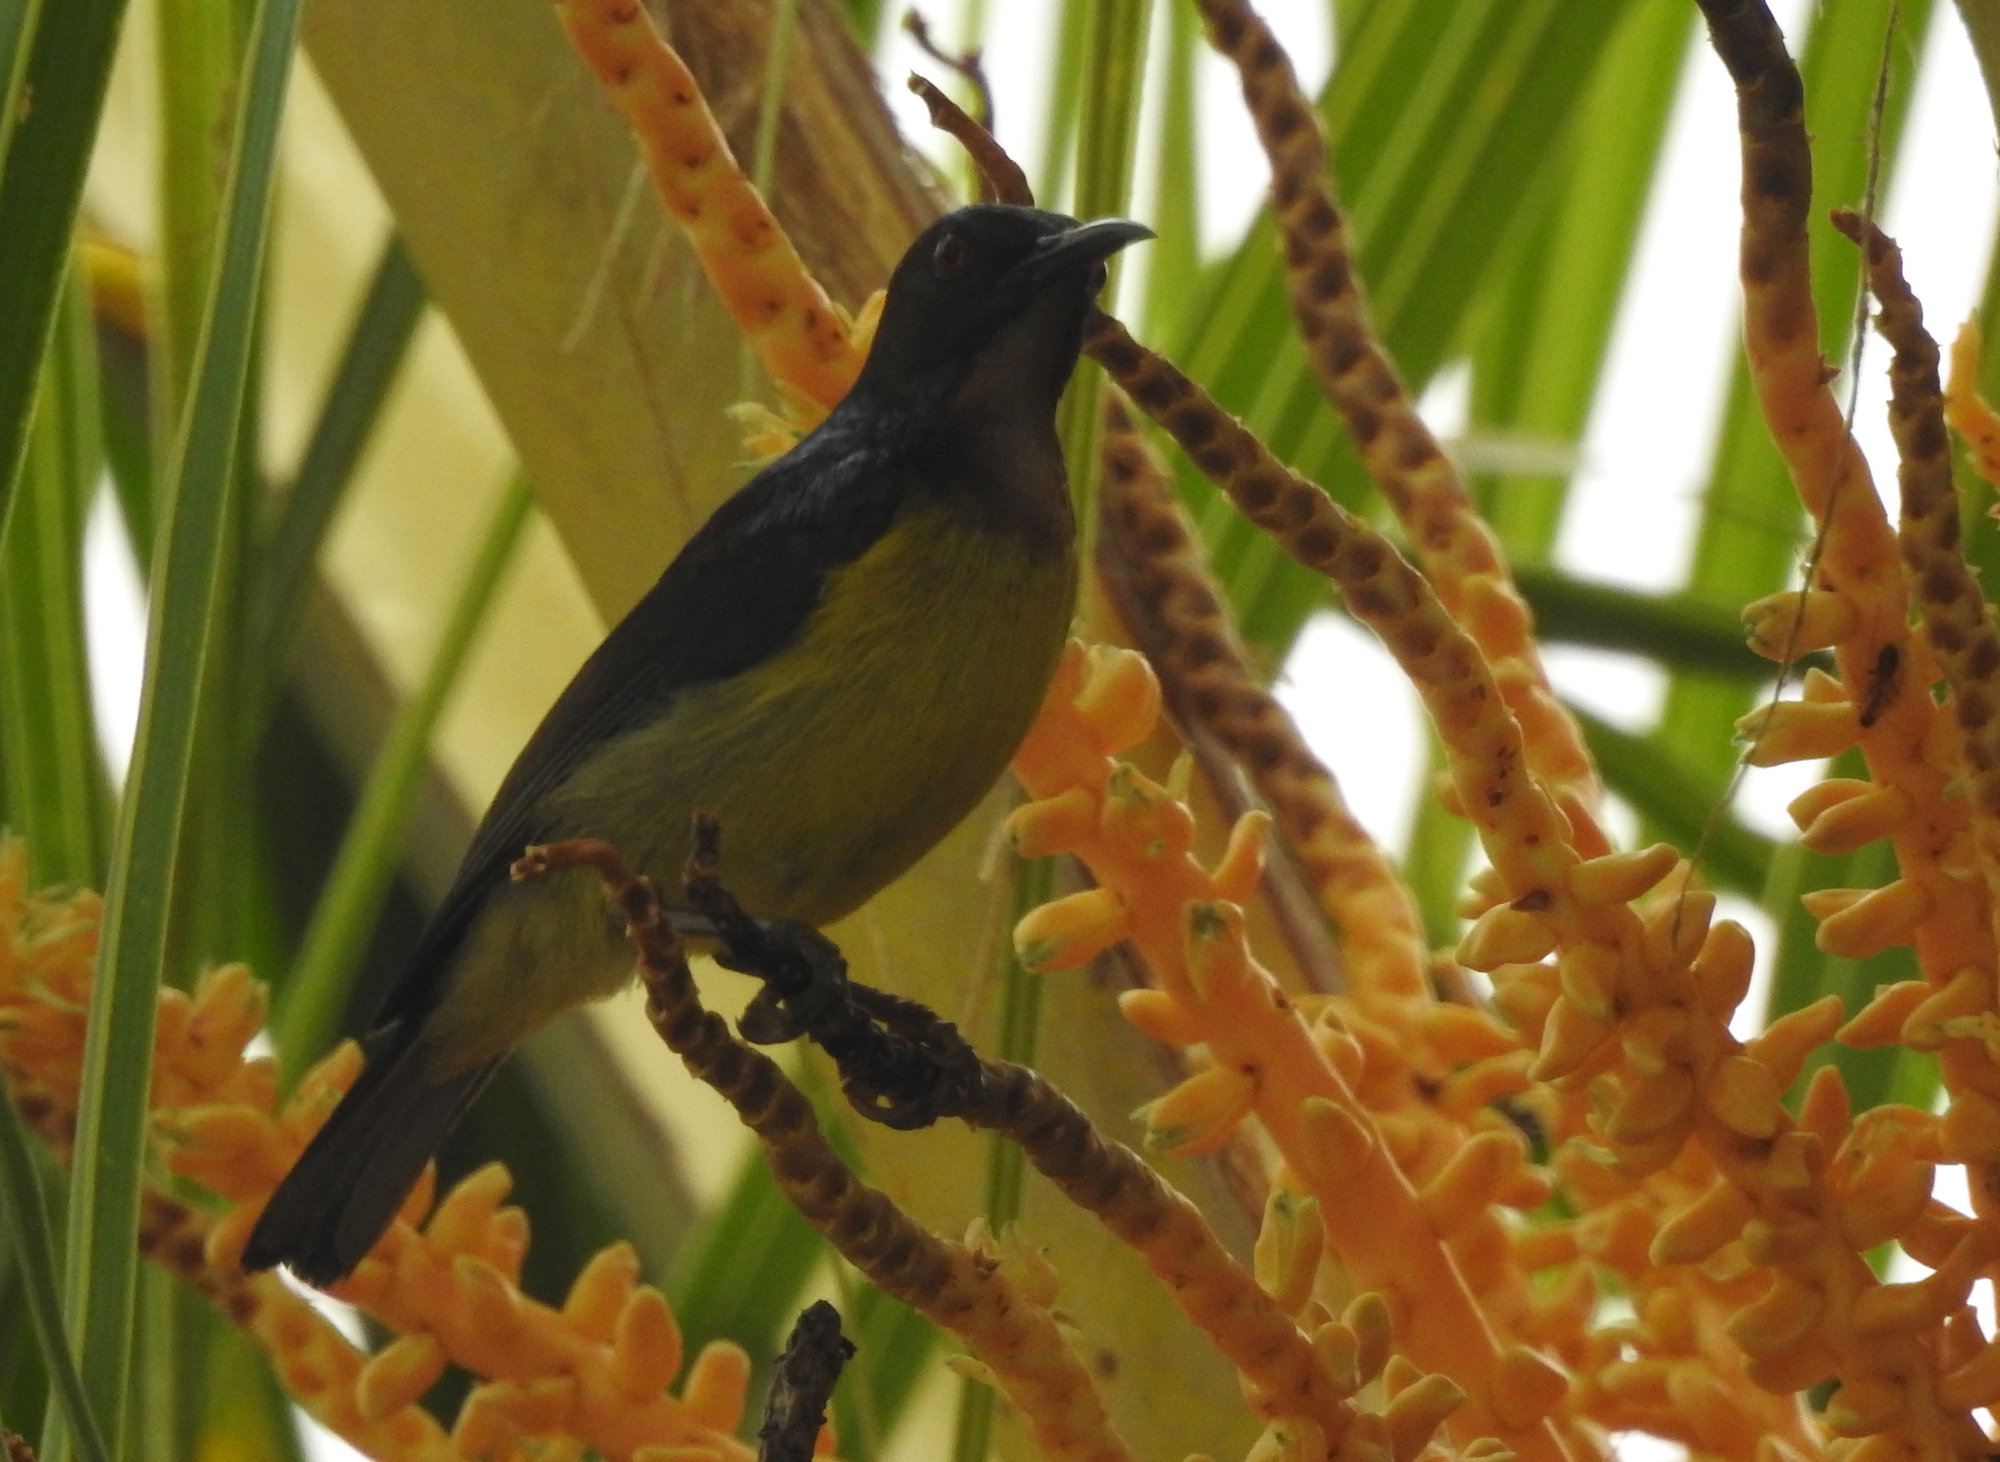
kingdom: Animalia
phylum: Chordata
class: Aves
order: Passeriformes
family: Nectariniidae
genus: Anthreptes
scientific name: Anthreptes malacensis
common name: Brown-throated sunbird
